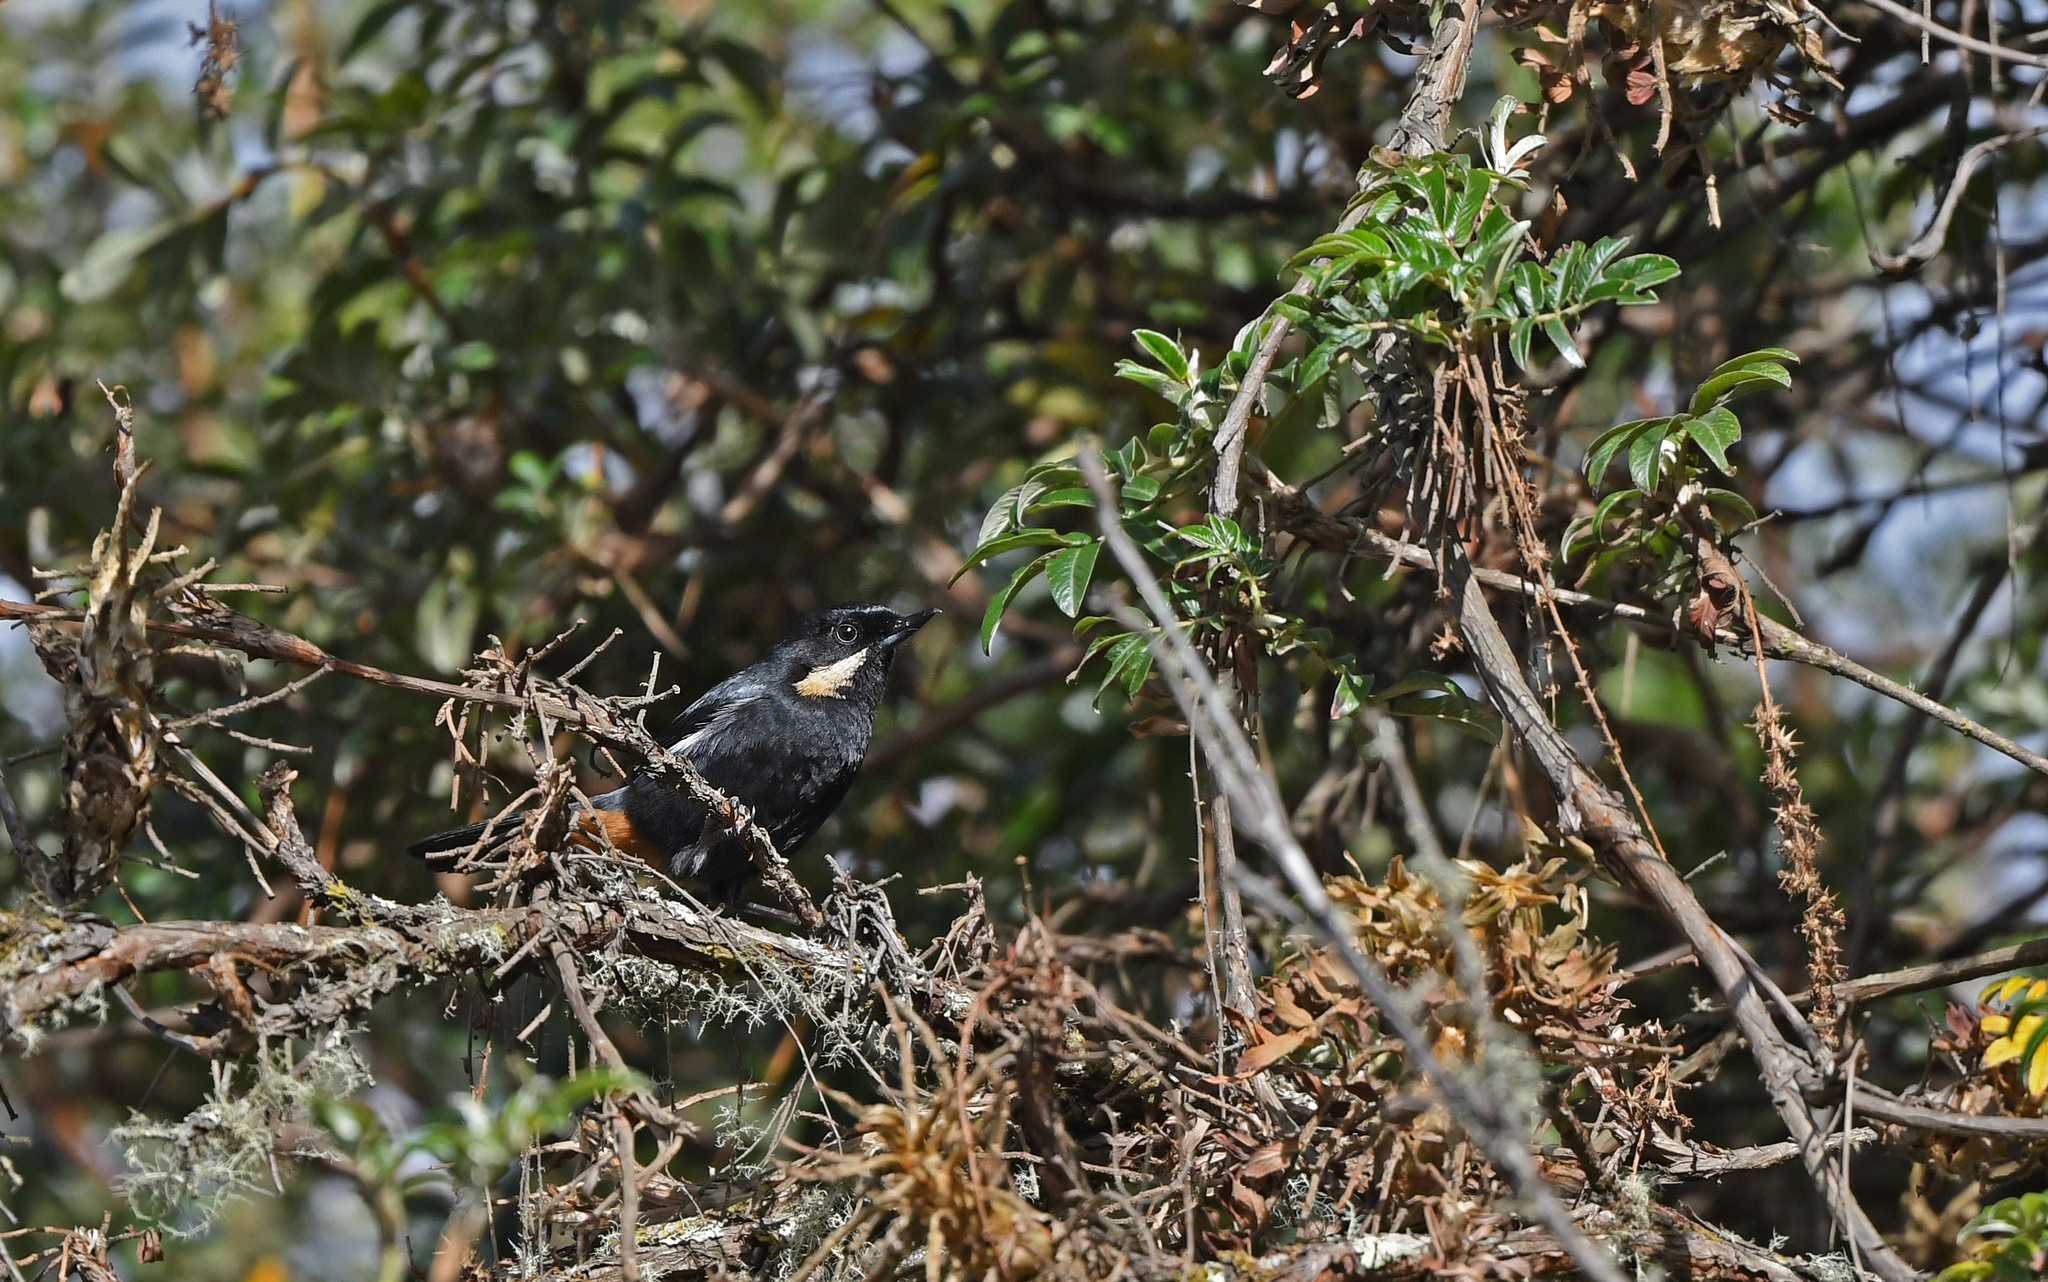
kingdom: Animalia
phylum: Chordata
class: Aves
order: Passeriformes
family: Thraupidae
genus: Diglossa
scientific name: Diglossa mystacalis
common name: Moustached flowerpiercer
